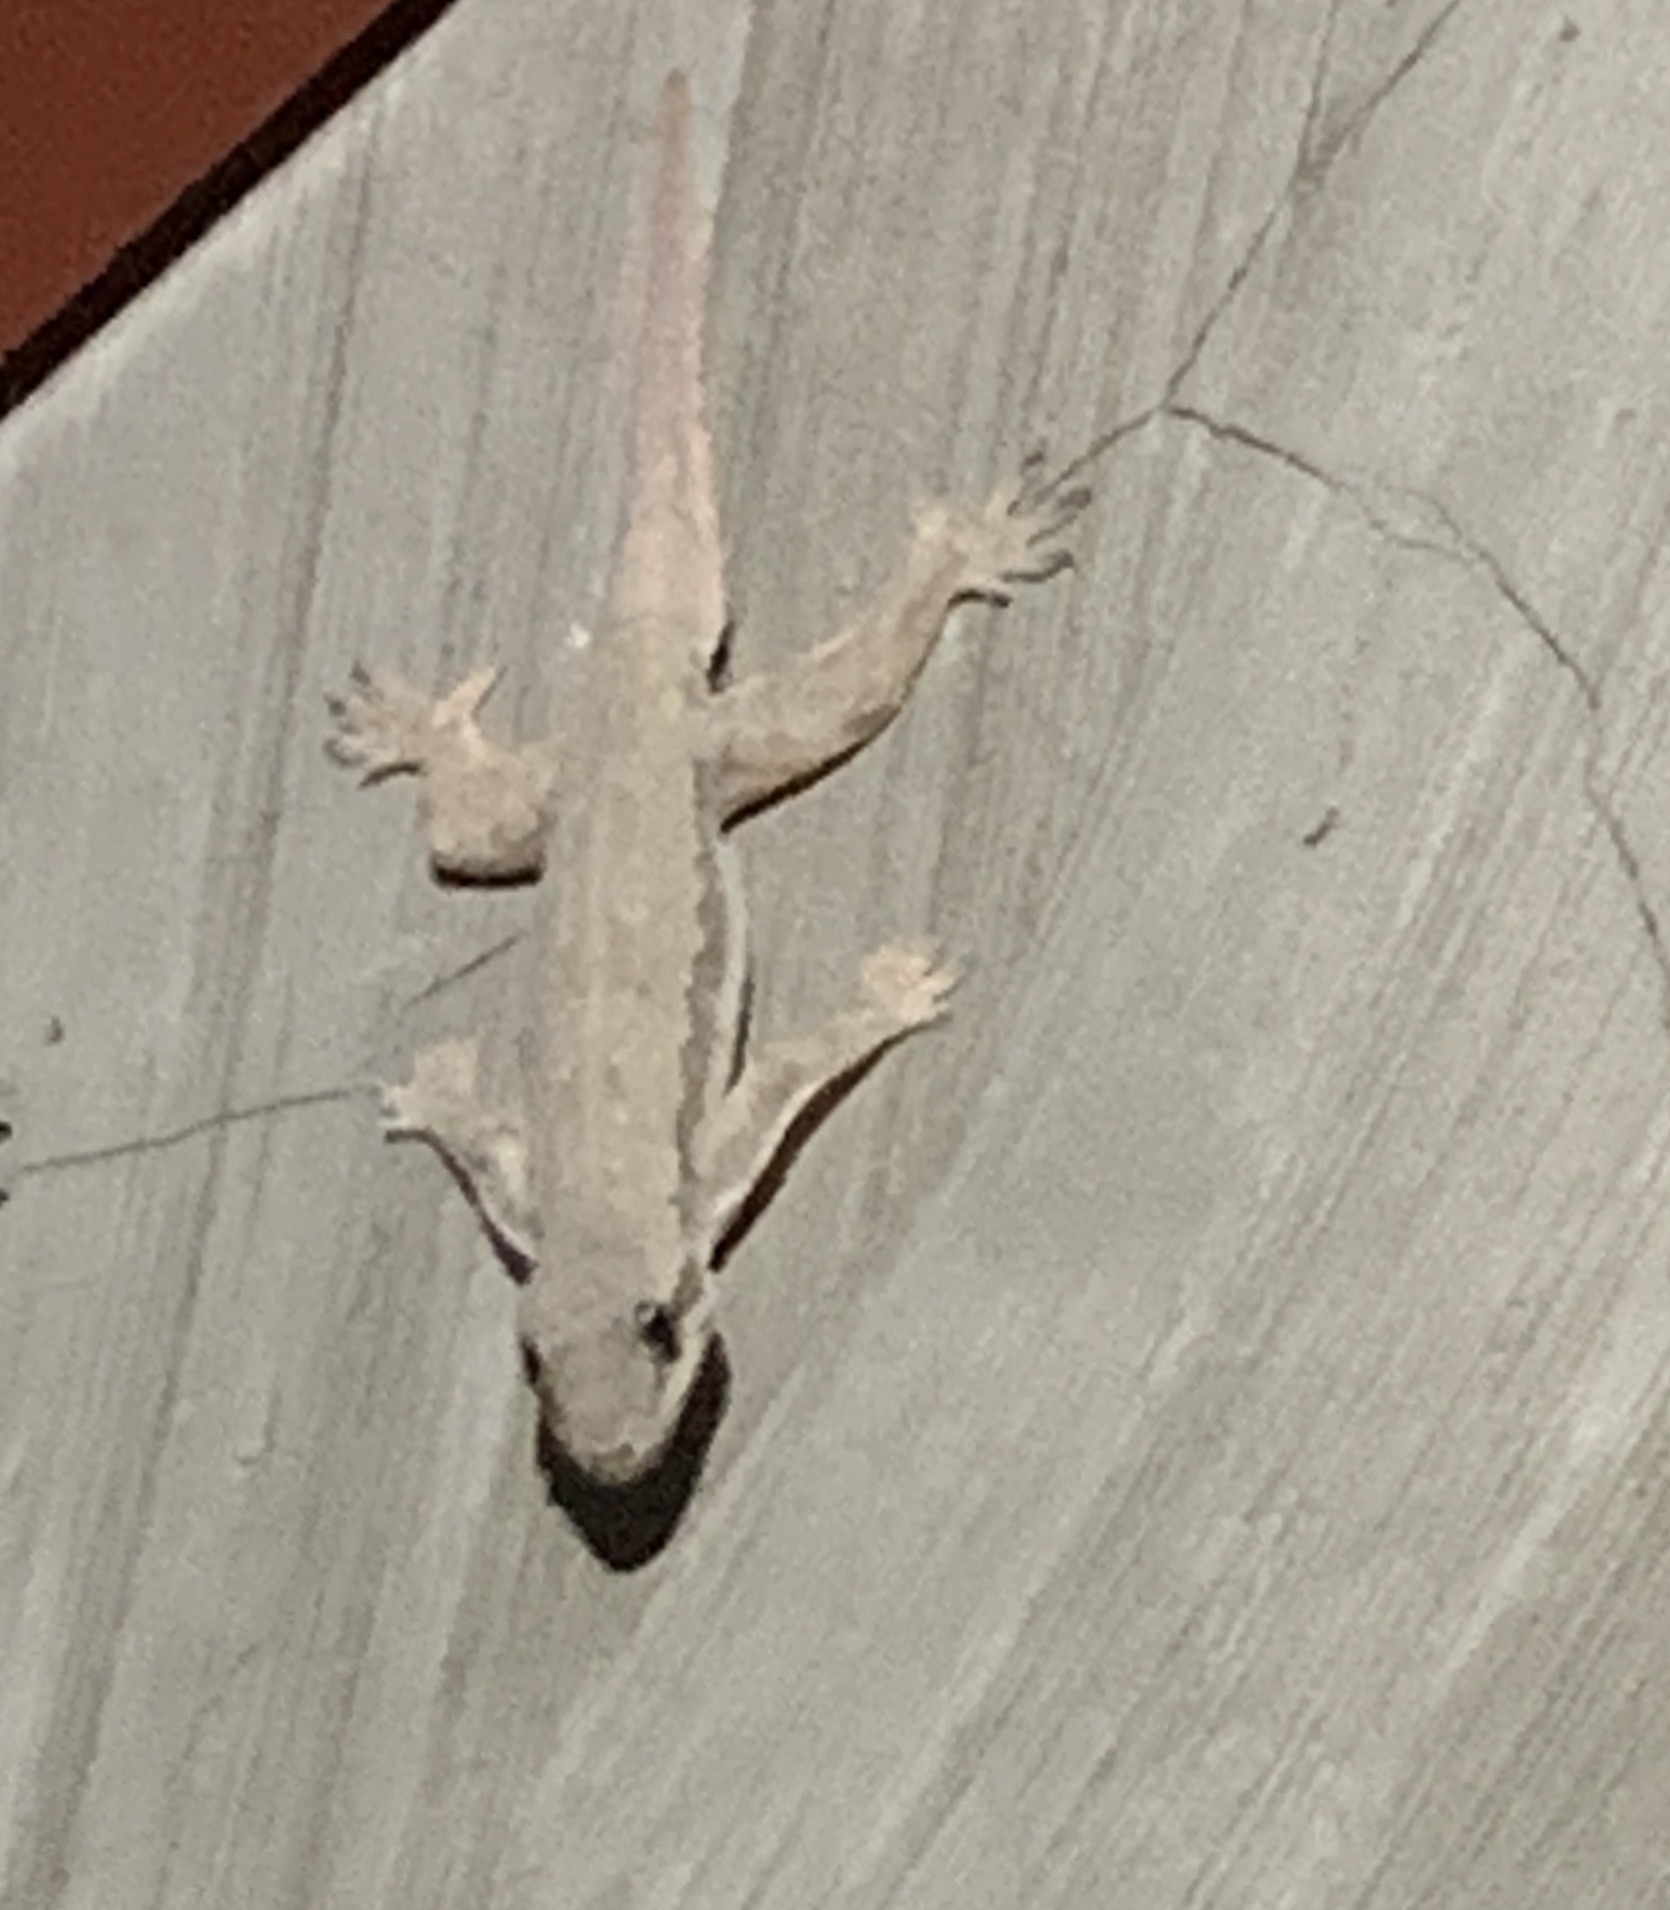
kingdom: Animalia
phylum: Chordata
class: Squamata
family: Gekkonidae
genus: Hemidactylus
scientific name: Hemidactylus platyurus
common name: Flat-tailed house gecko
